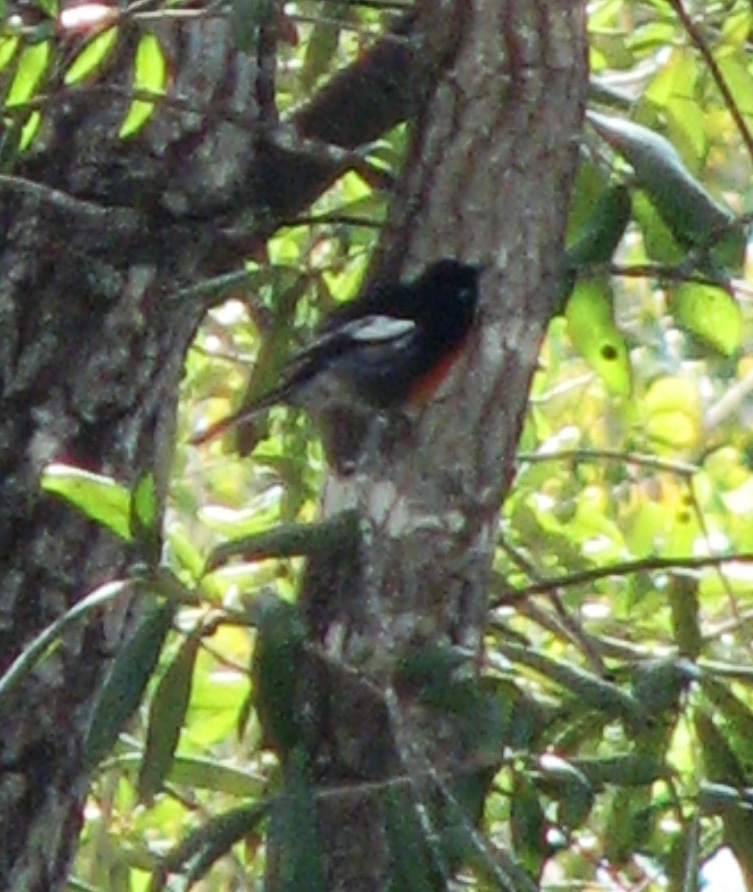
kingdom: Animalia
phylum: Chordata
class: Aves
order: Passeriformes
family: Parulidae
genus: Myioborus
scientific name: Myioborus pictus
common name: Painted whitestart
